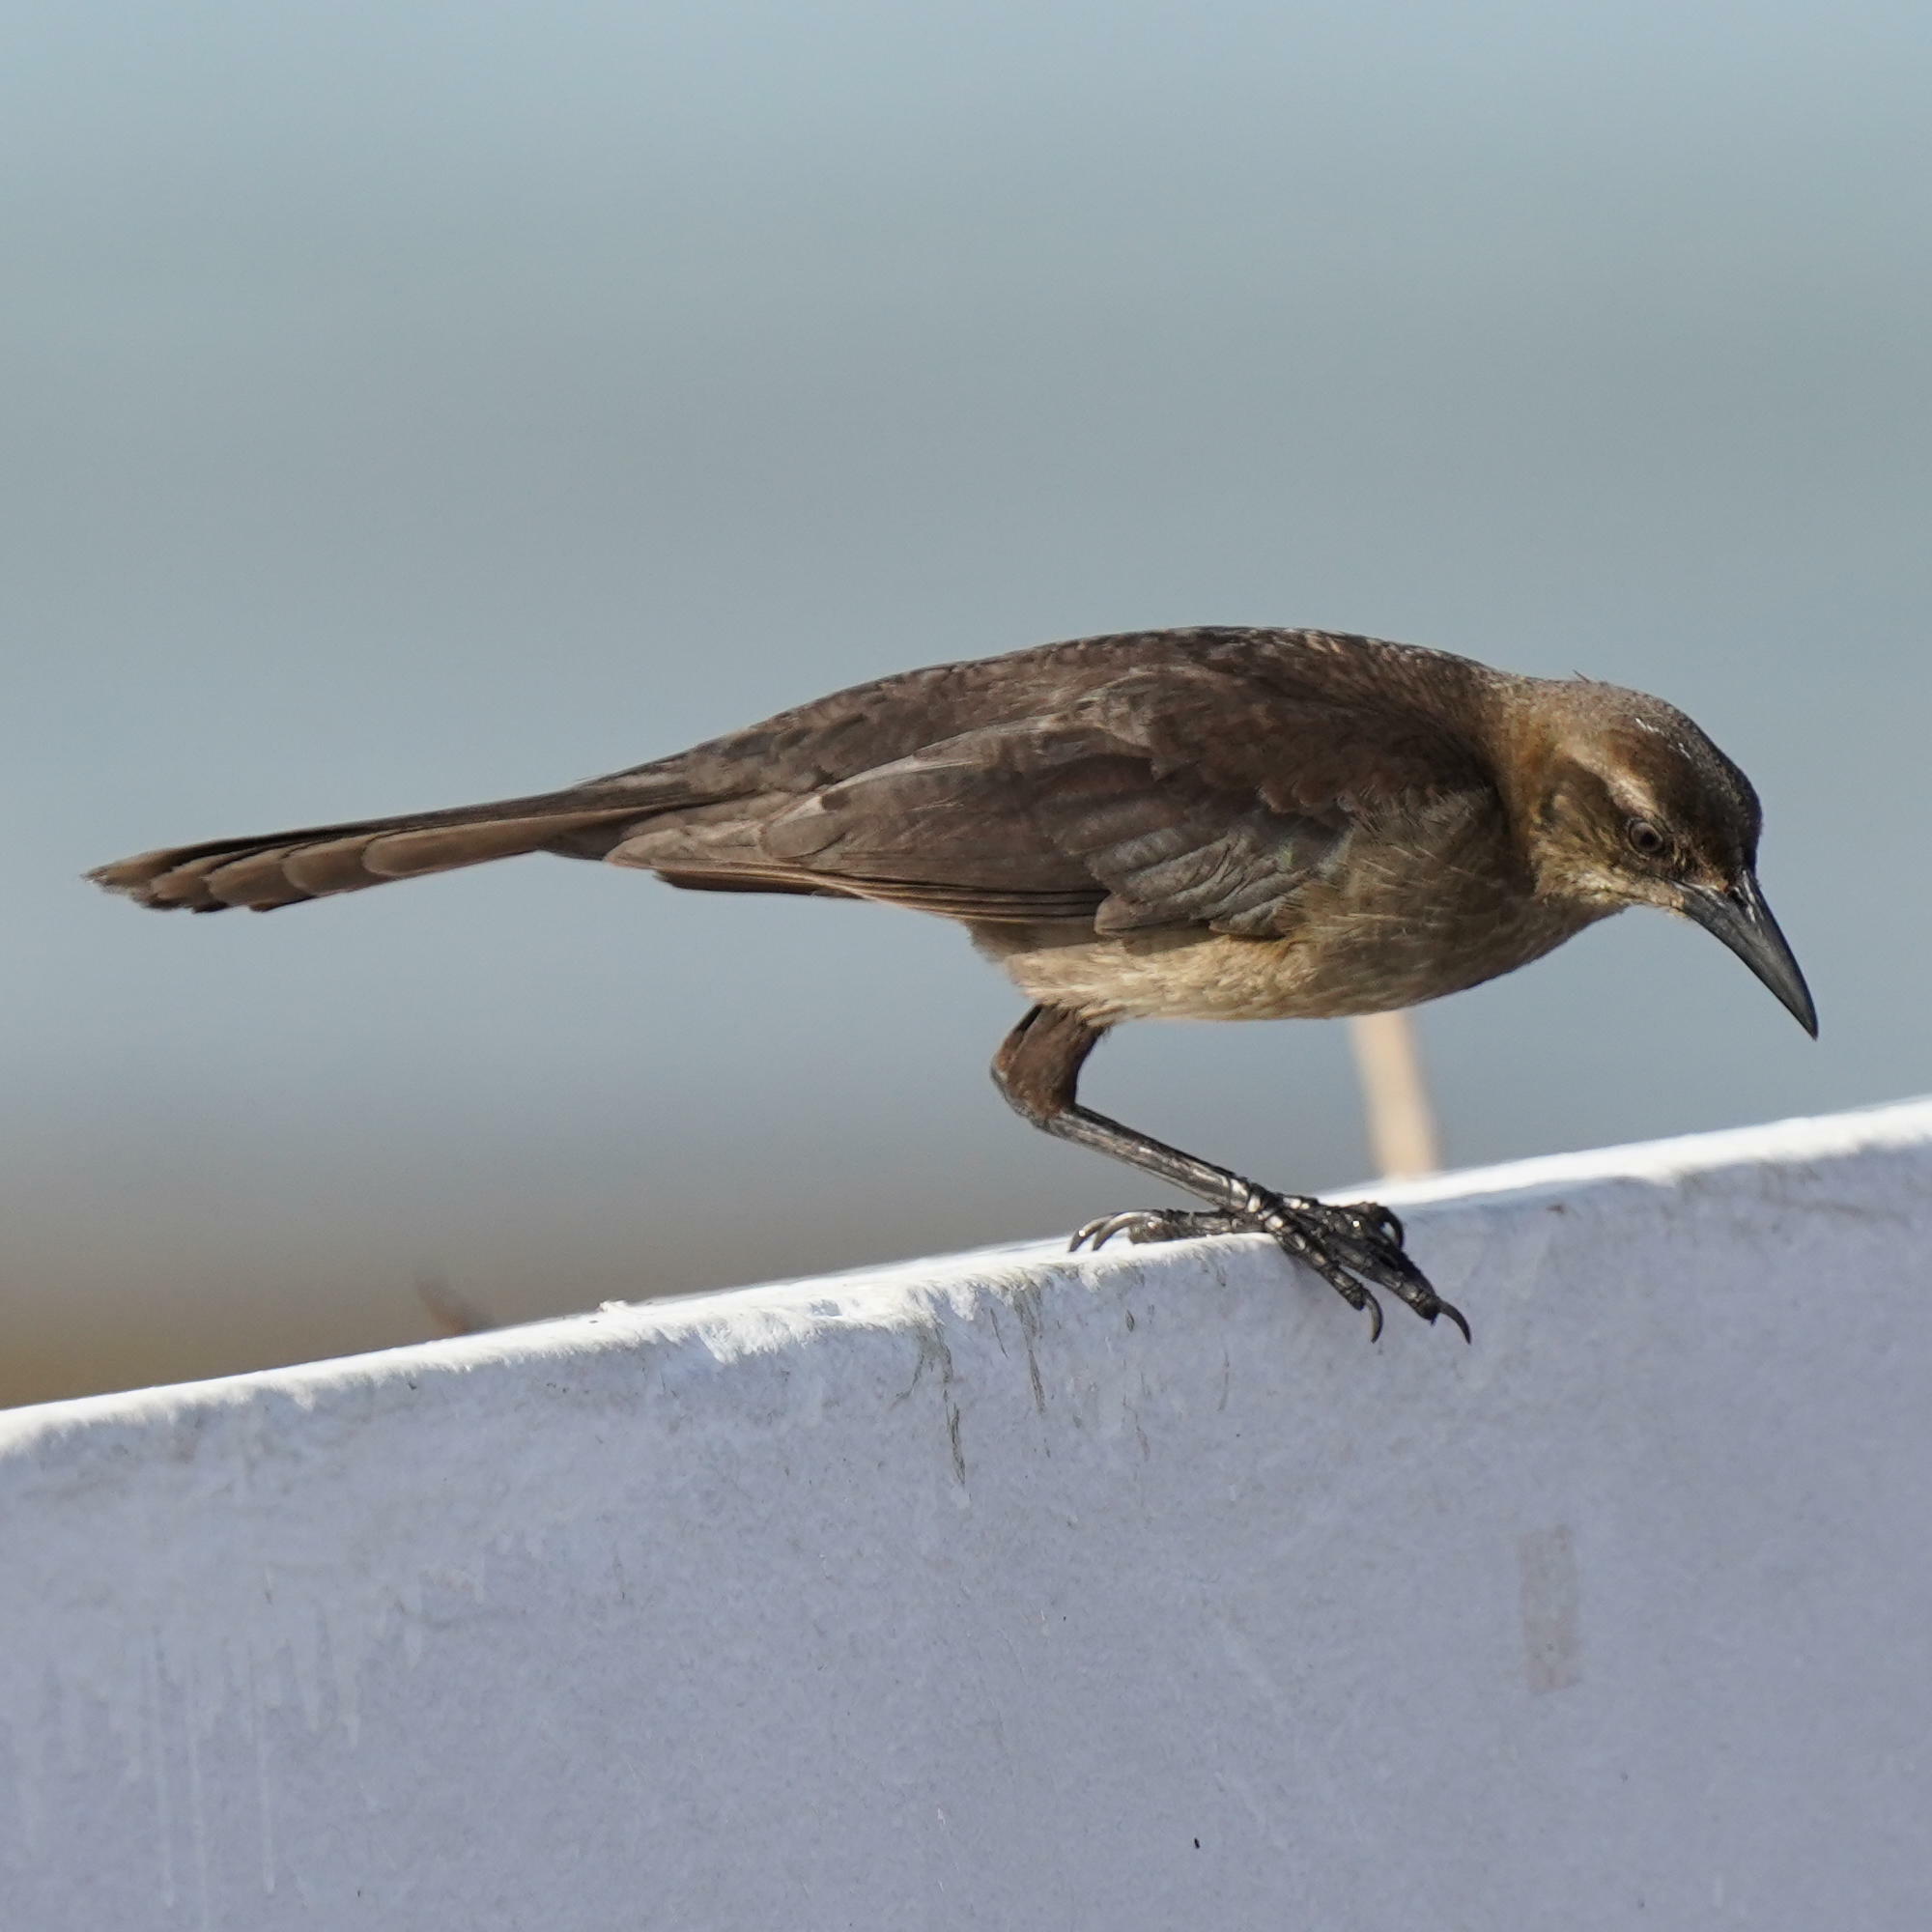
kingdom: Animalia
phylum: Chordata
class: Aves
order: Passeriformes
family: Icteridae
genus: Quiscalus
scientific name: Quiscalus mexicanus
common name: Great-tailed grackle
